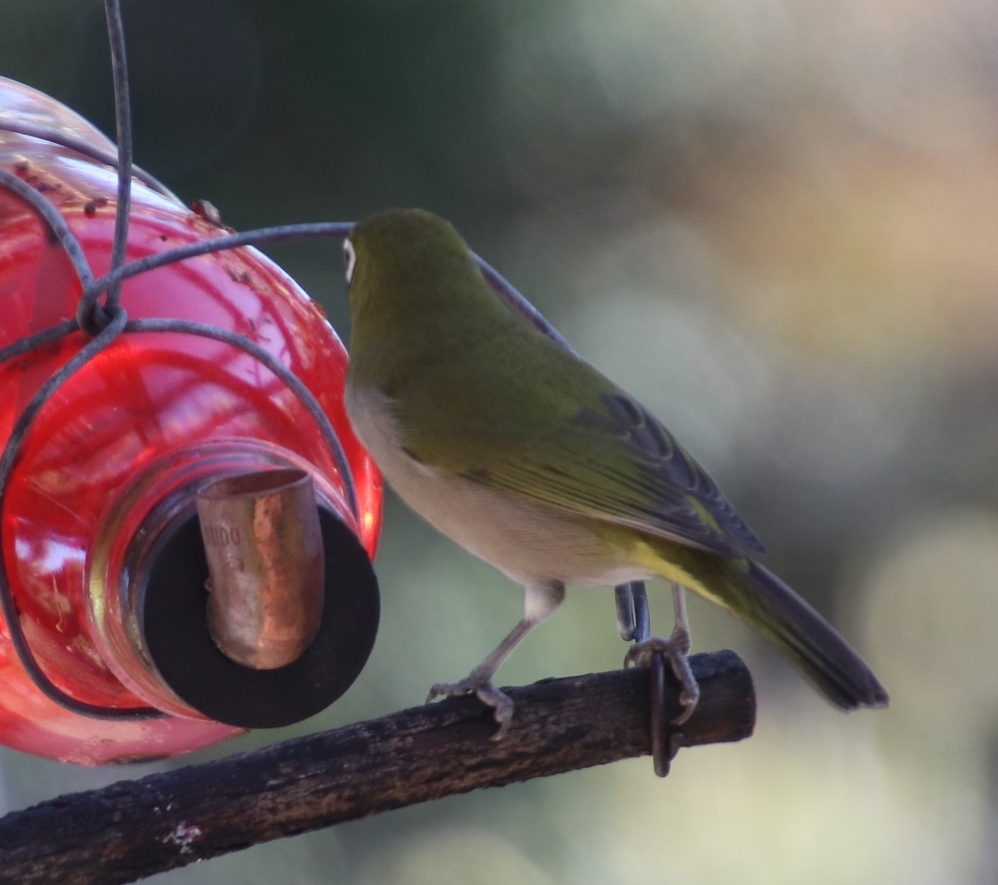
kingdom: Animalia
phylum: Chordata
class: Aves
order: Passeriformes
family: Zosteropidae
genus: Zosterops
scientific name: Zosterops virens
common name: Cape white-eye
